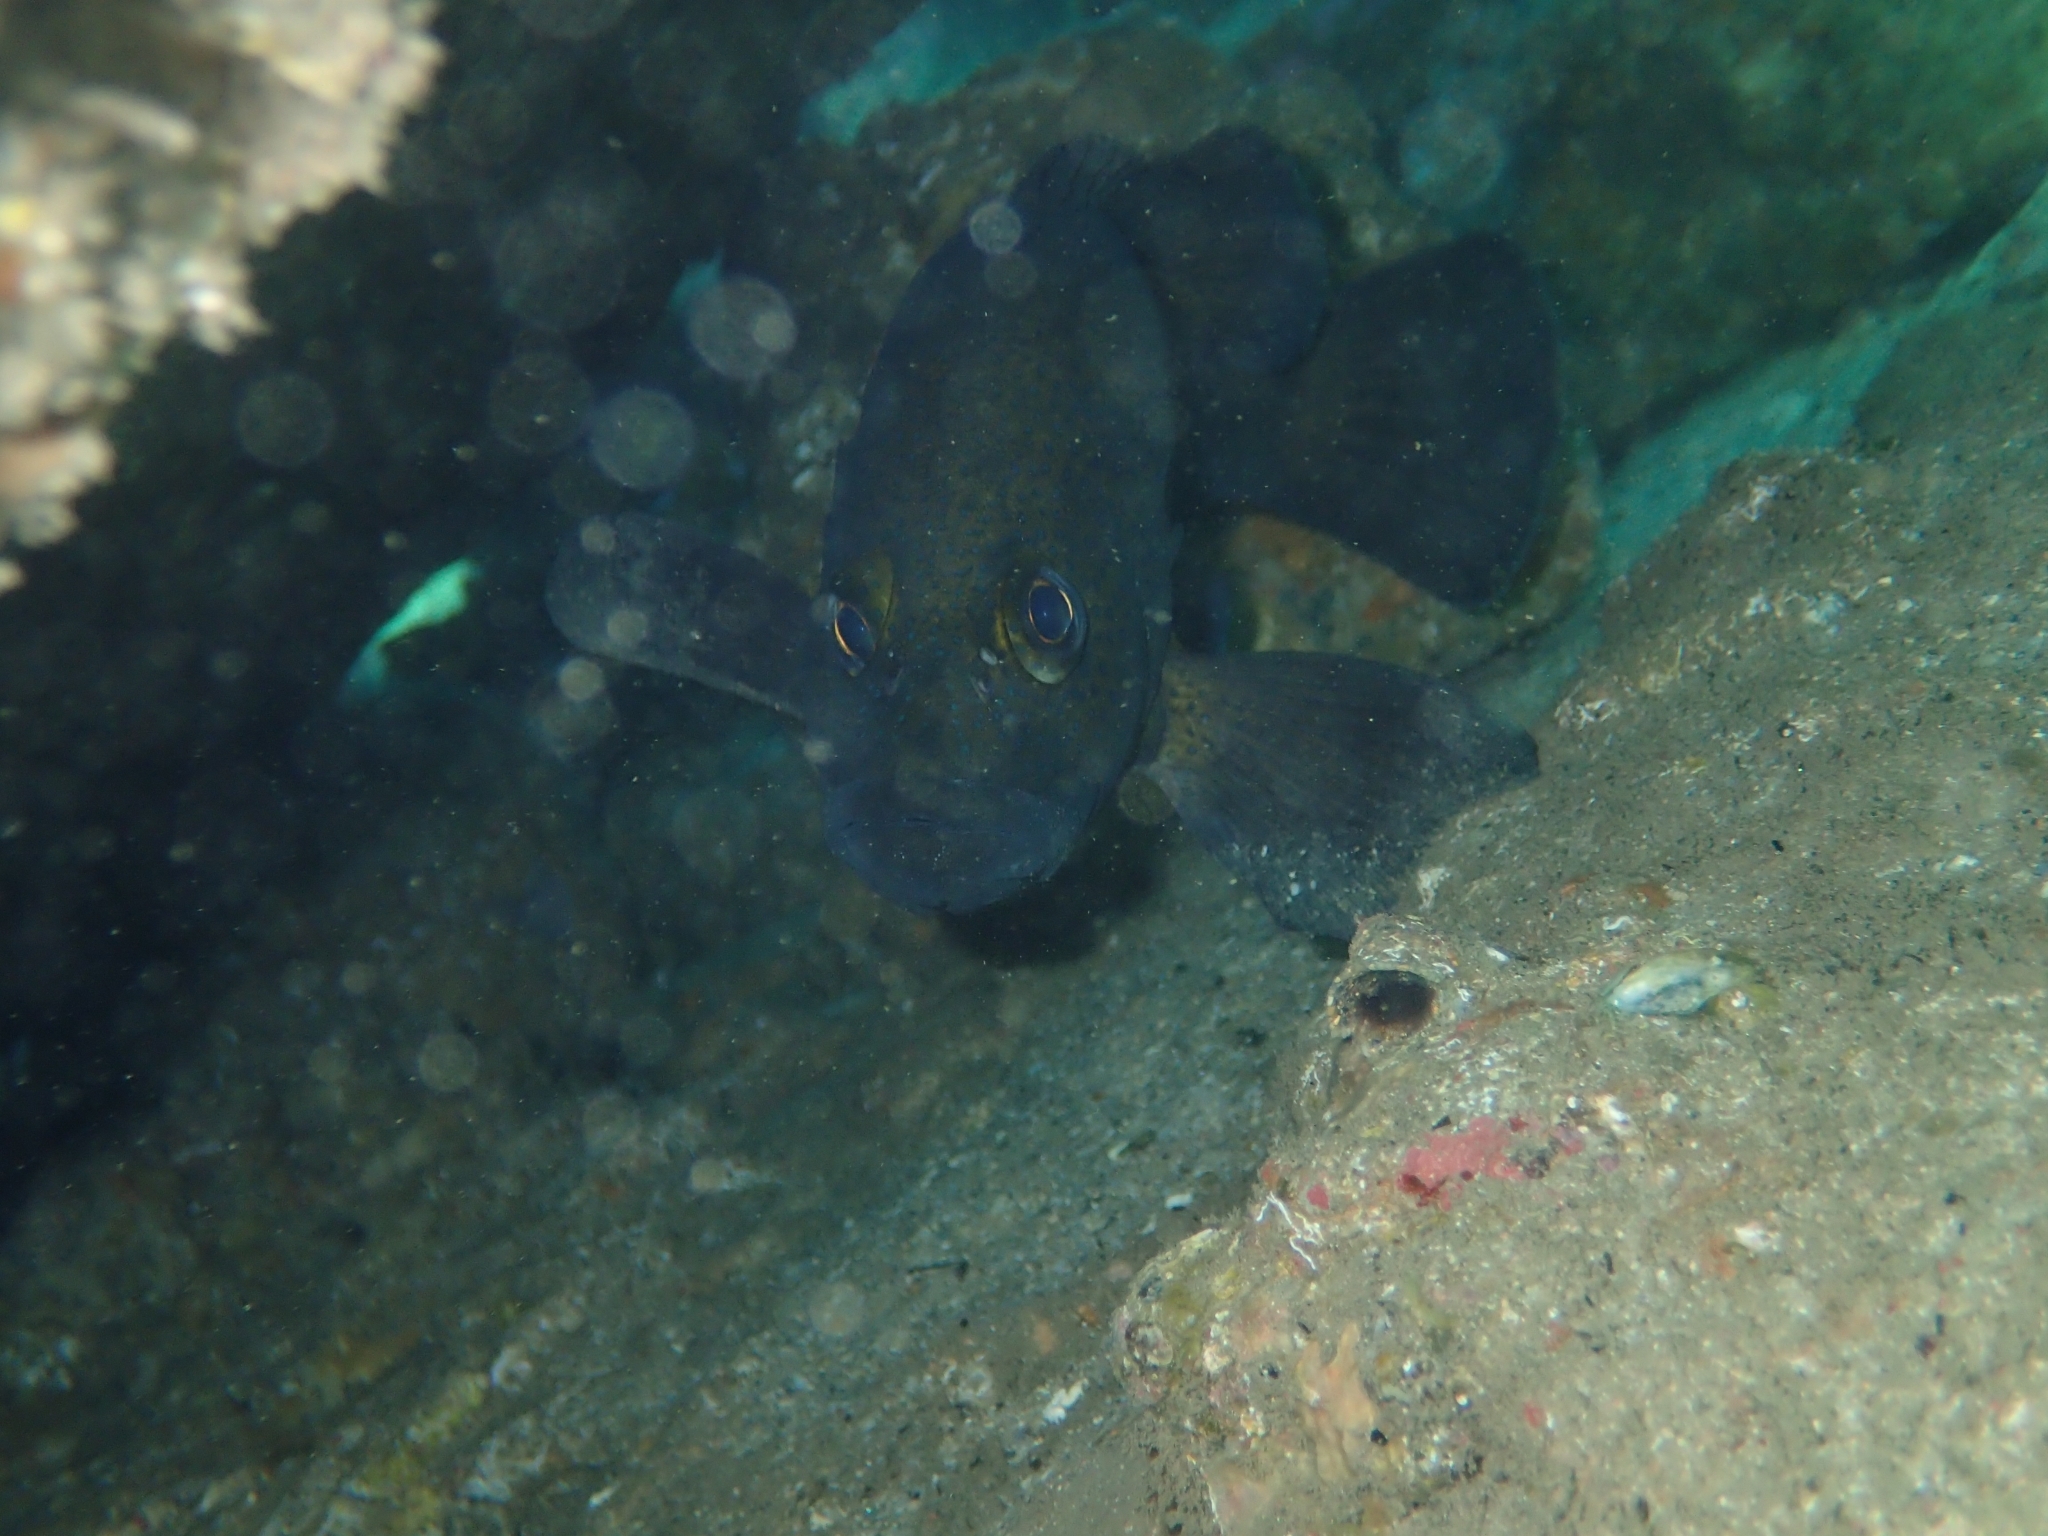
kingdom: Animalia
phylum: Chordata
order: Perciformes
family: Serranidae
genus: Acanthistius
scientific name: Acanthistius ocellatus
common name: Eastern wirrah
